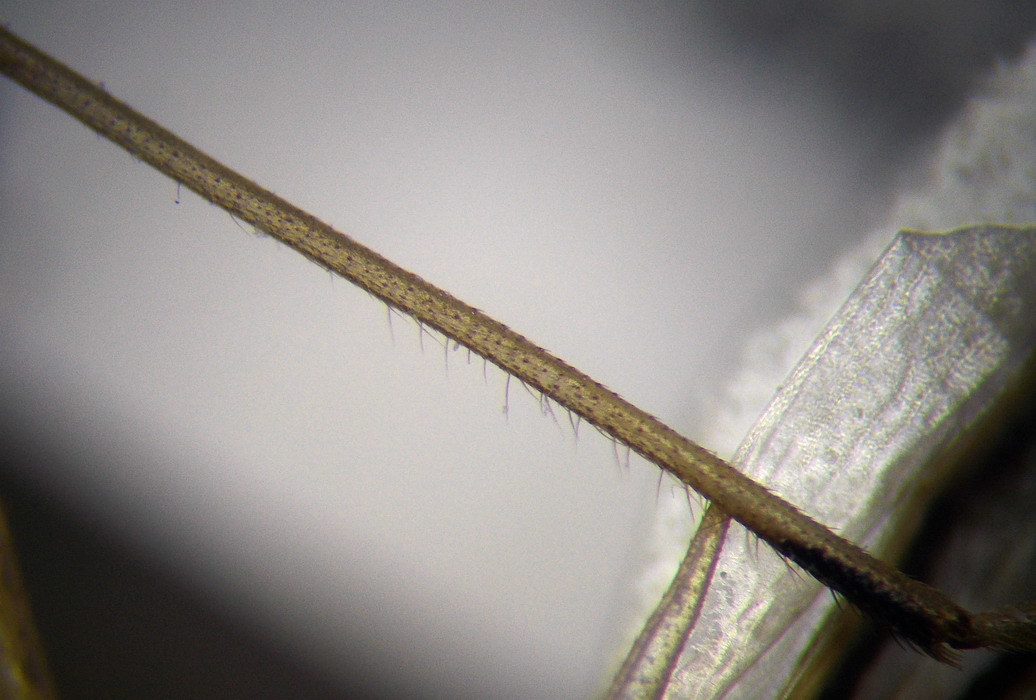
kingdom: Animalia
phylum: Arthropoda
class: Insecta
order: Hemiptera
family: Rhopalidae
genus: Chorosoma
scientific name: Chorosoma schillingii
